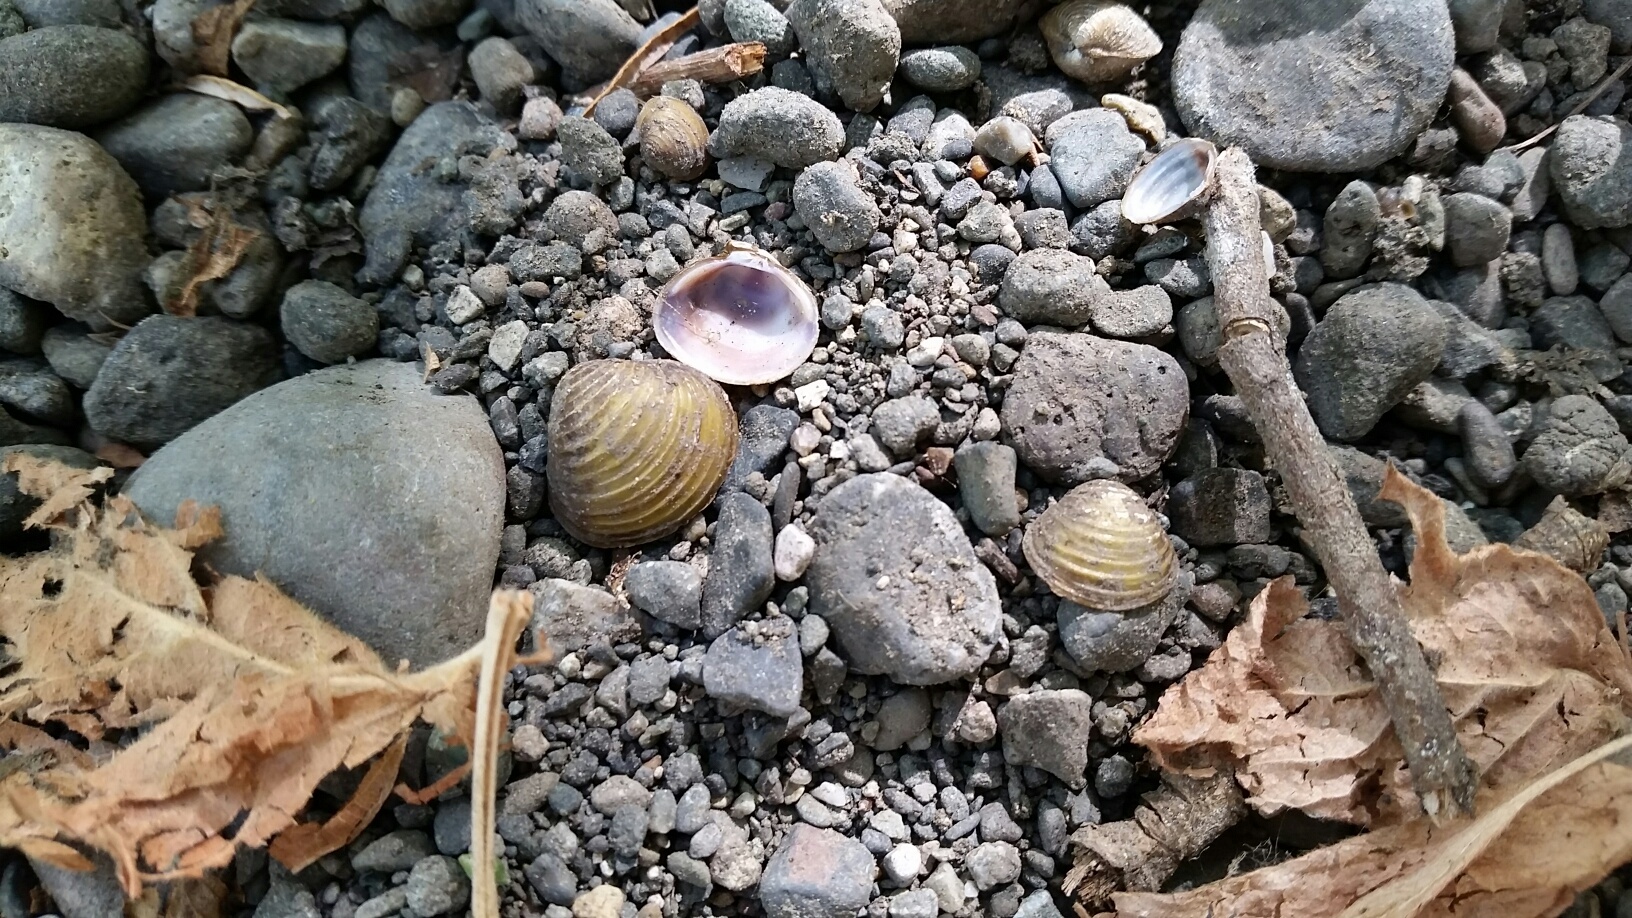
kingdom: Animalia
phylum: Mollusca
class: Bivalvia
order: Venerida
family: Cyrenidae
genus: Corbicula
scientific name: Corbicula fluminea
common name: Asian clam
